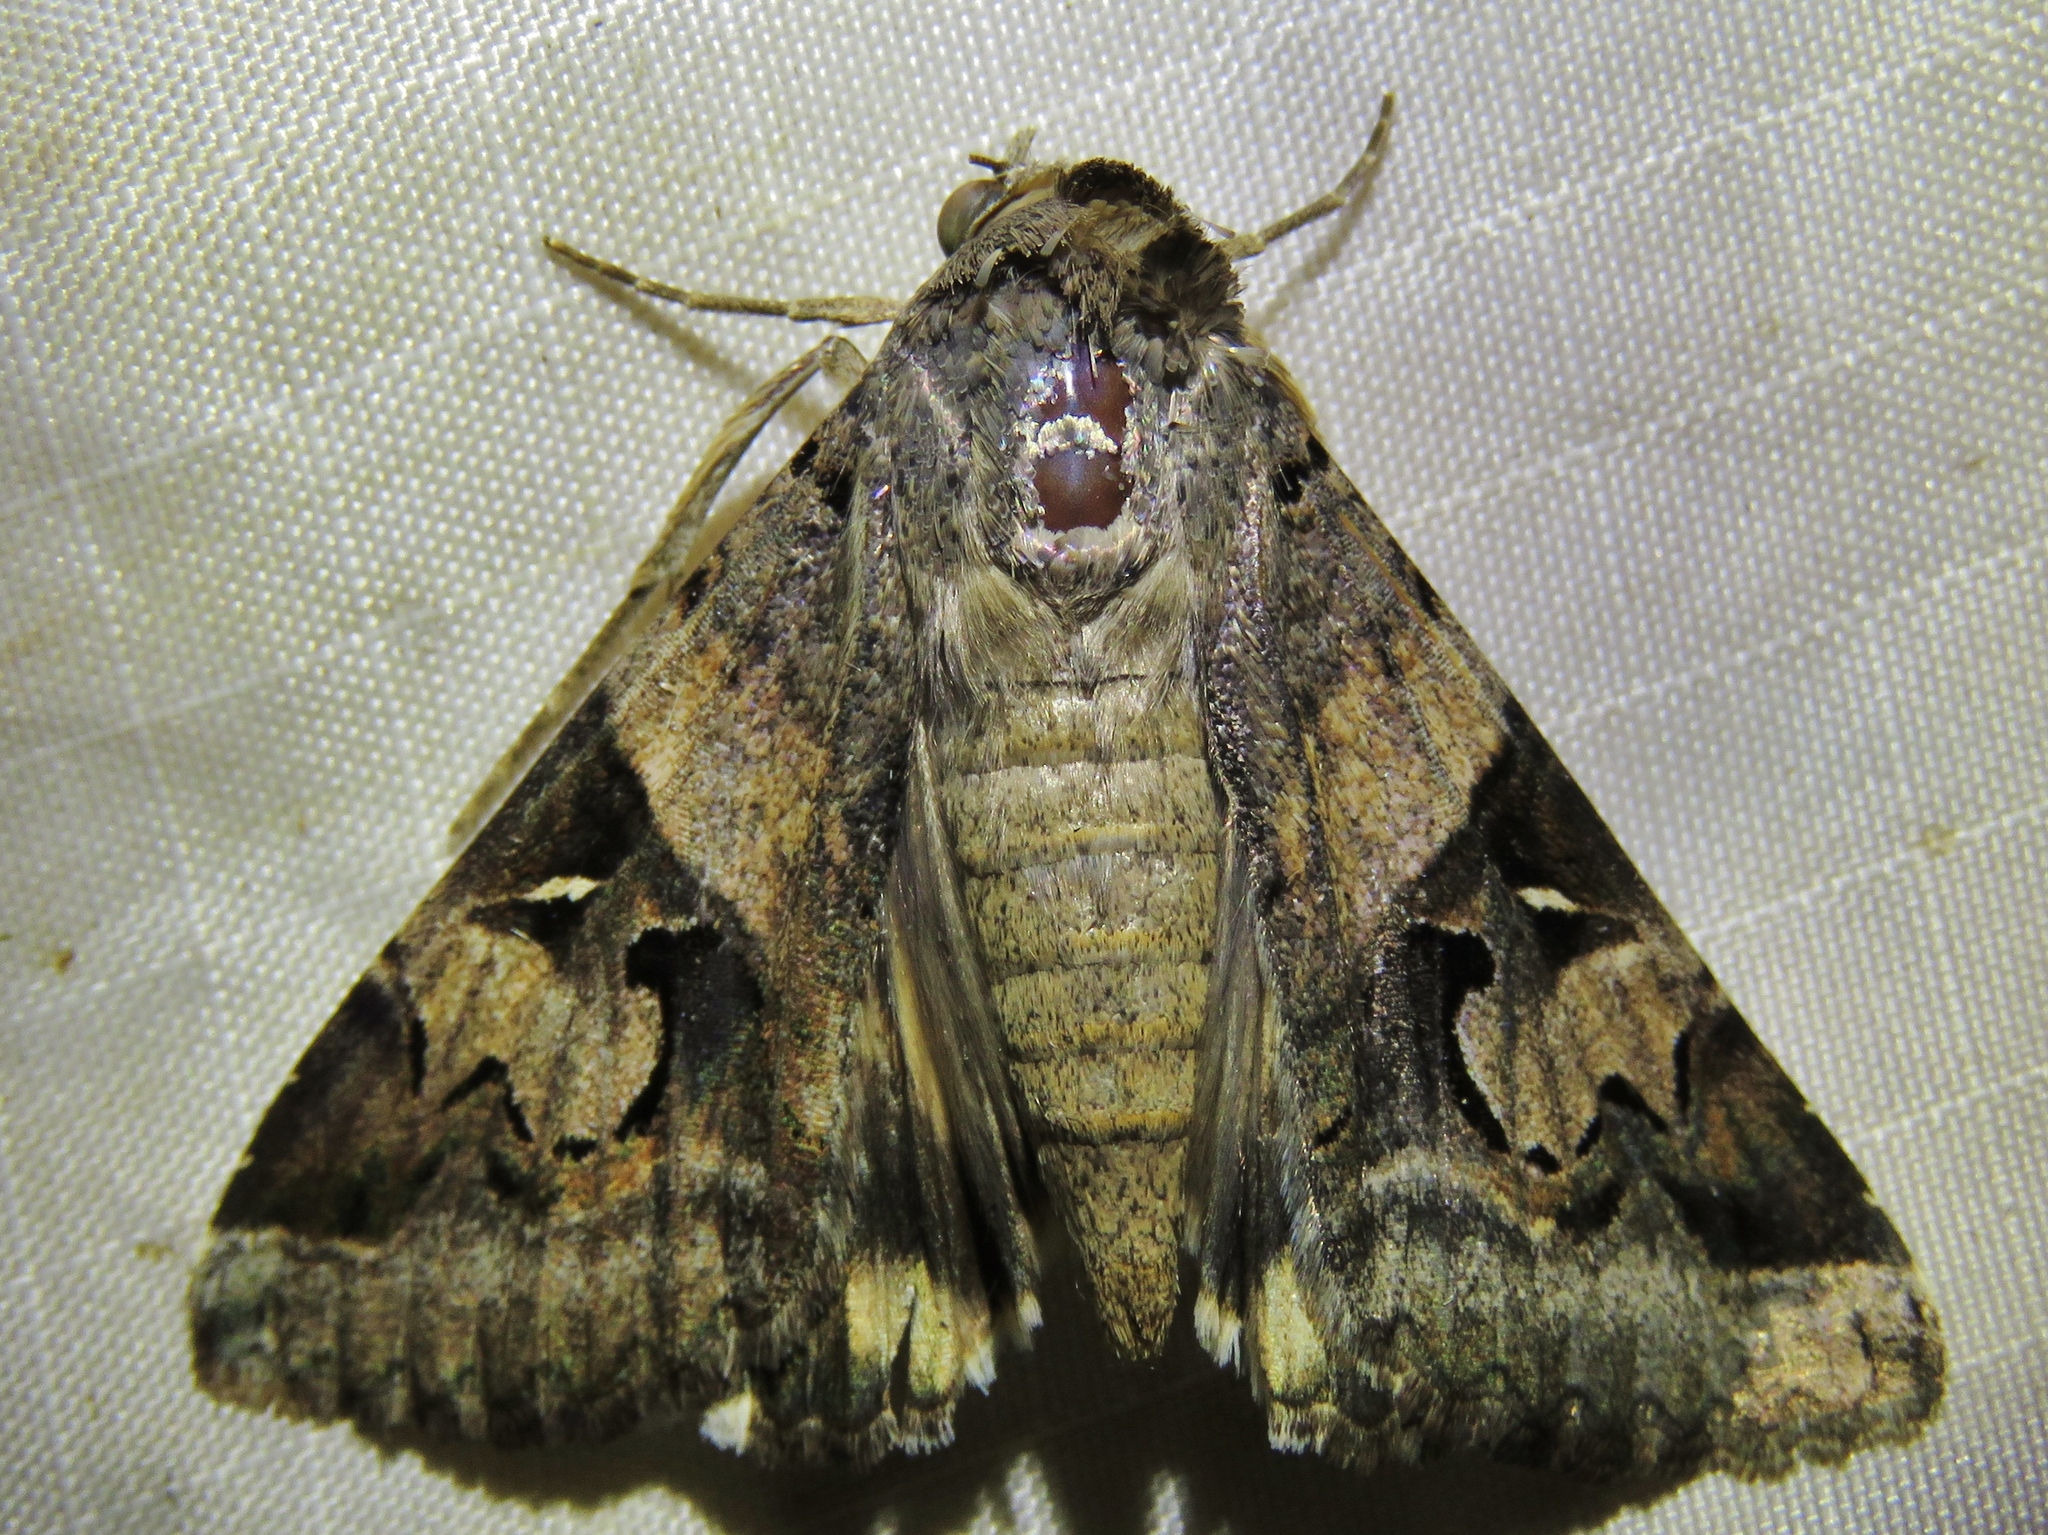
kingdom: Animalia
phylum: Arthropoda
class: Insecta
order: Lepidoptera
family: Erebidae
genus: Melipotis
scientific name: Melipotis indomita
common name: Moth
